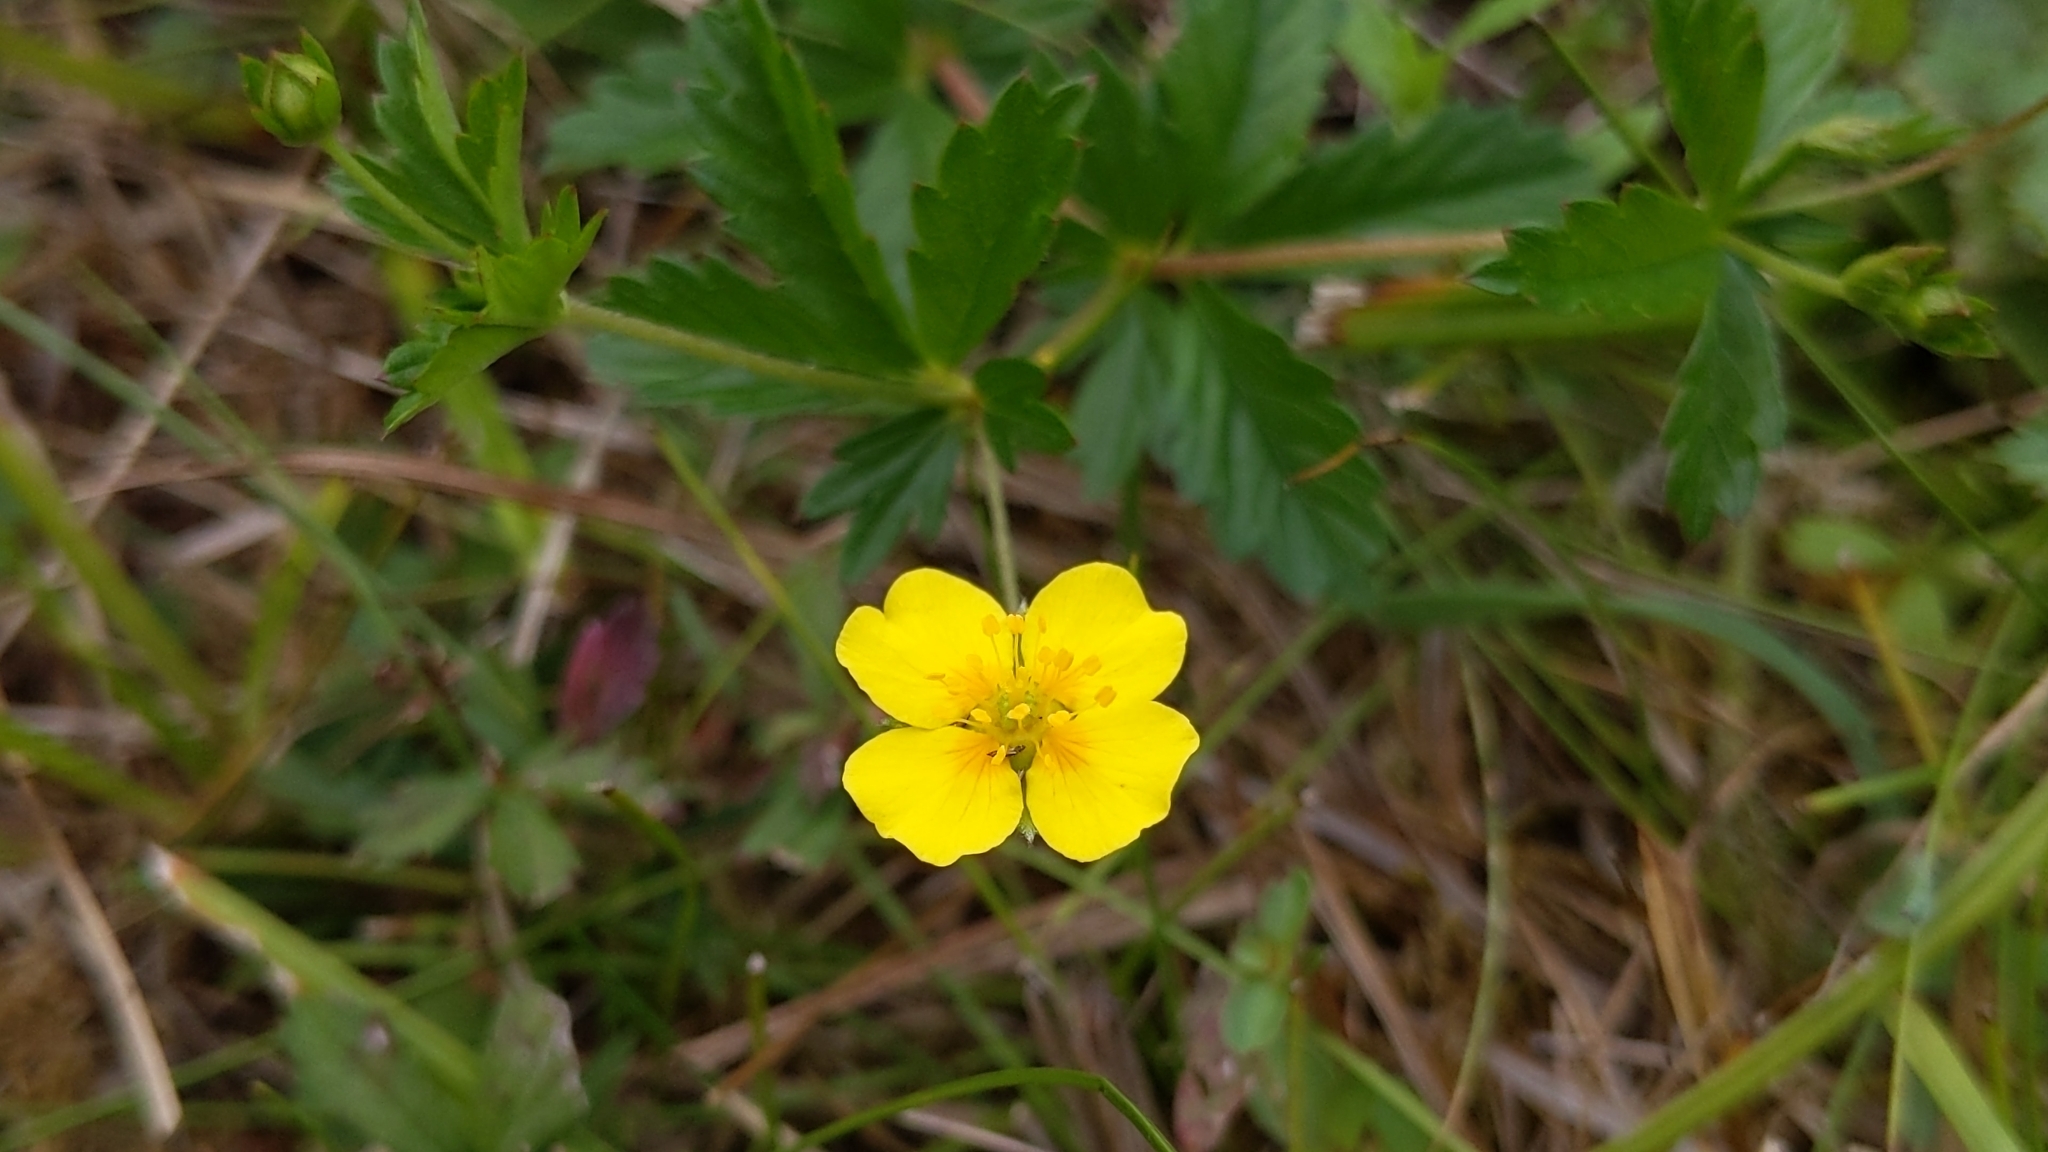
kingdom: Plantae
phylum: Tracheophyta
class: Magnoliopsida
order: Rosales
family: Rosaceae
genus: Potentilla
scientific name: Potentilla erecta
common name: Tormentil
